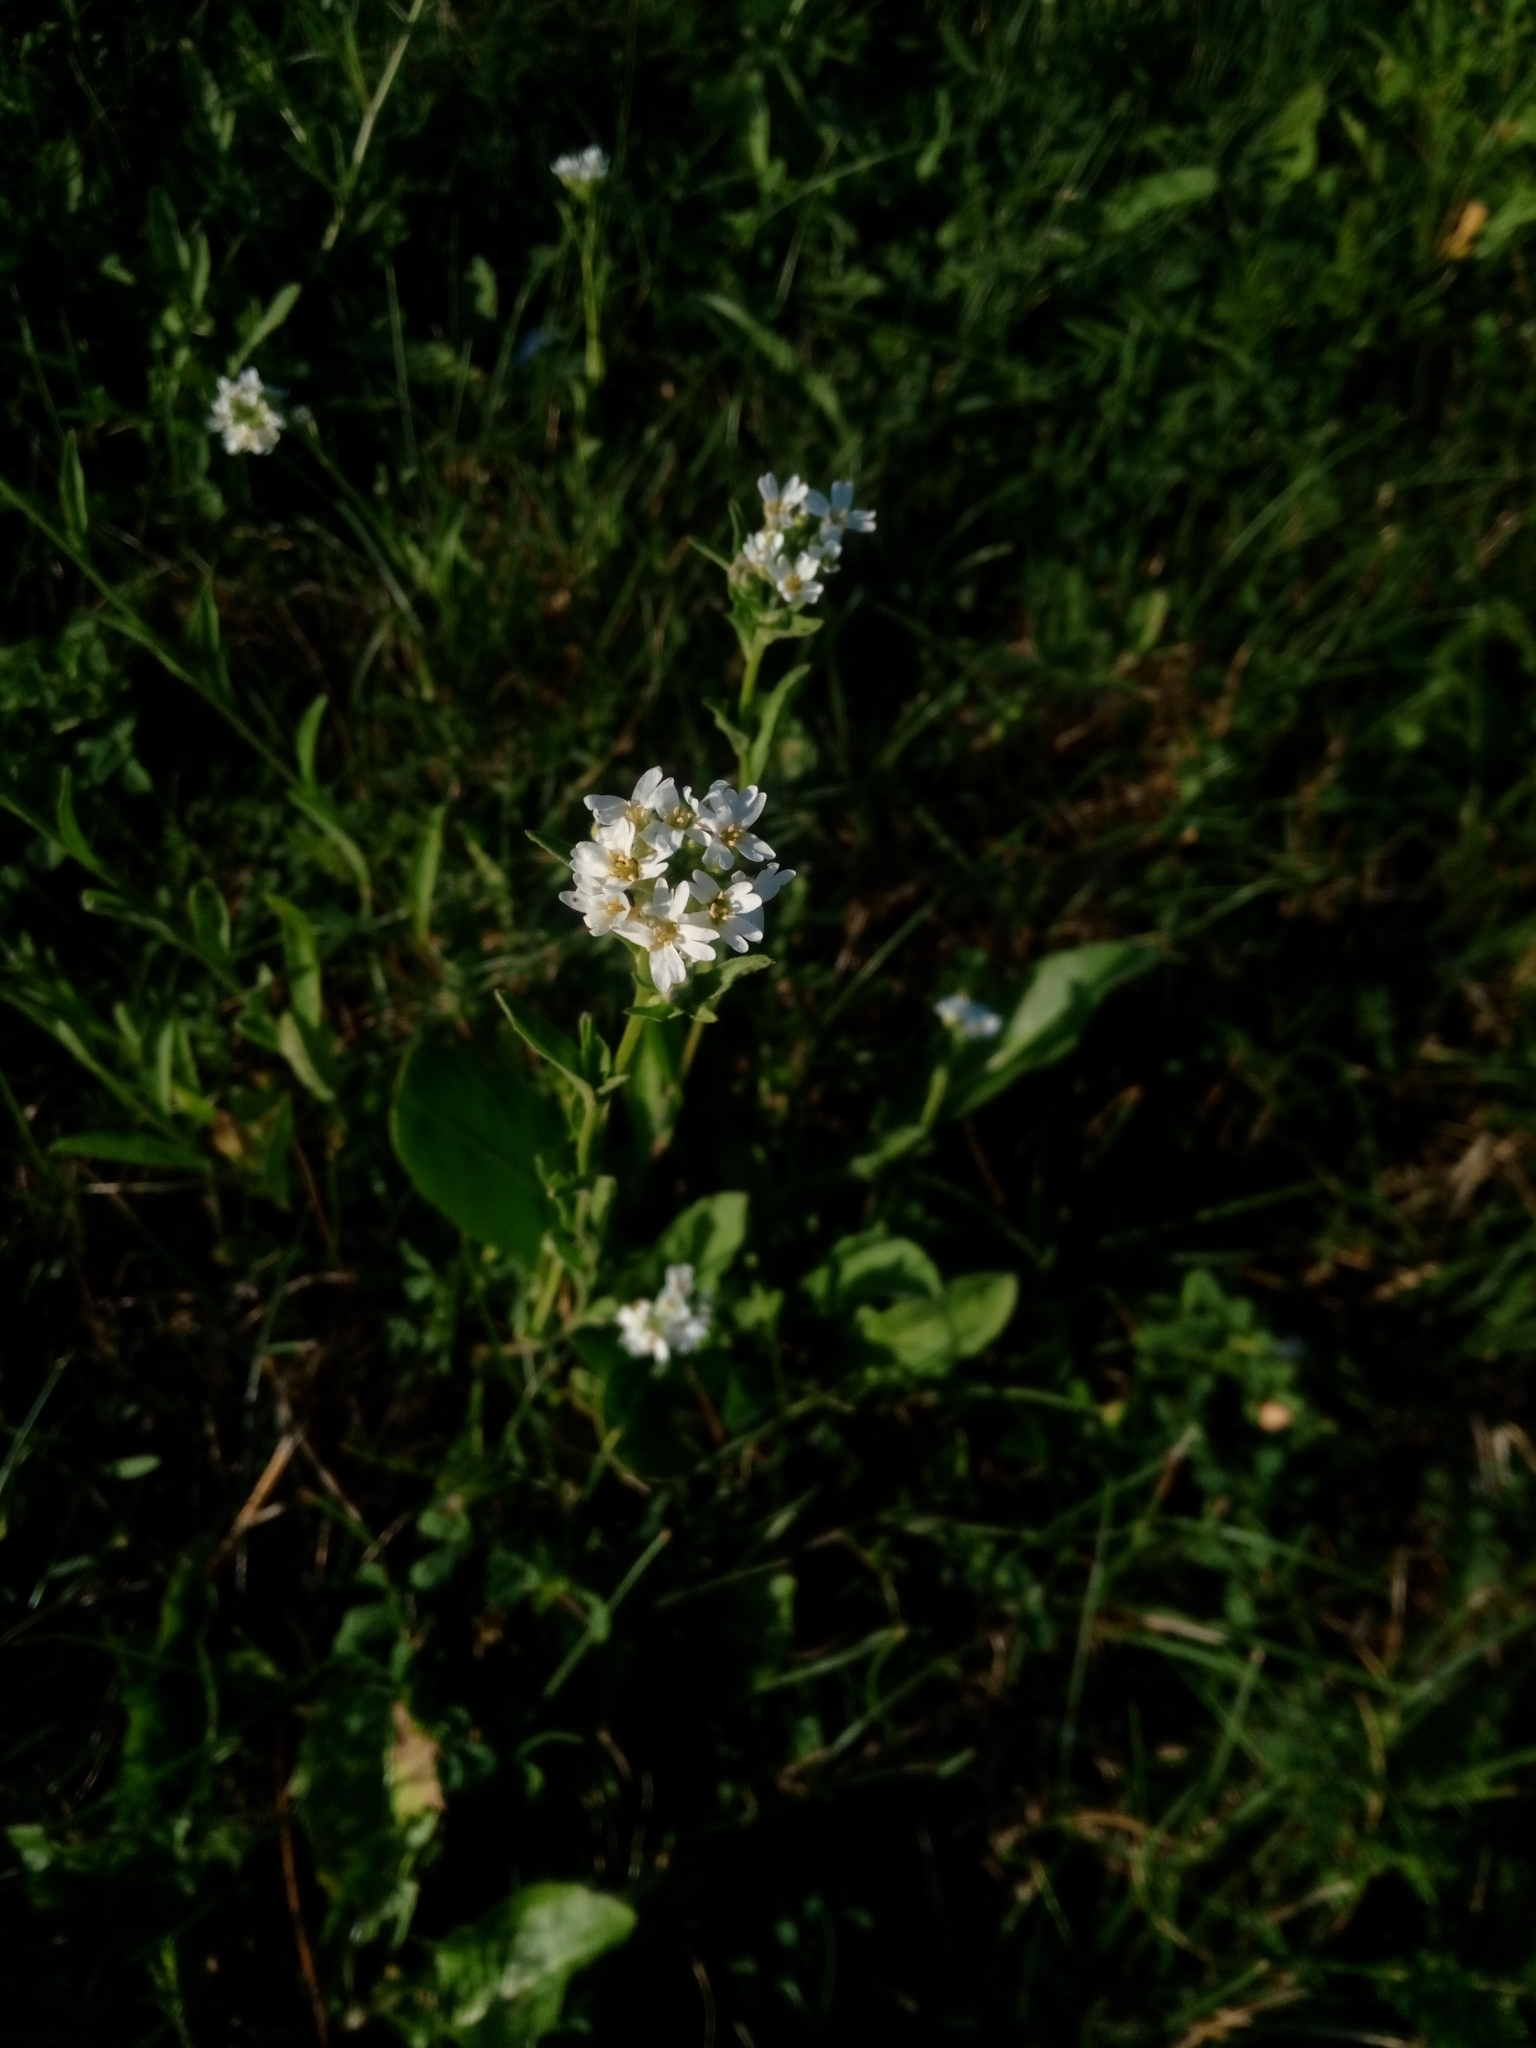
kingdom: Plantae
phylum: Tracheophyta
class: Magnoliopsida
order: Brassicales
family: Brassicaceae
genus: Berteroa
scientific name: Berteroa incana
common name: Hoary alison
